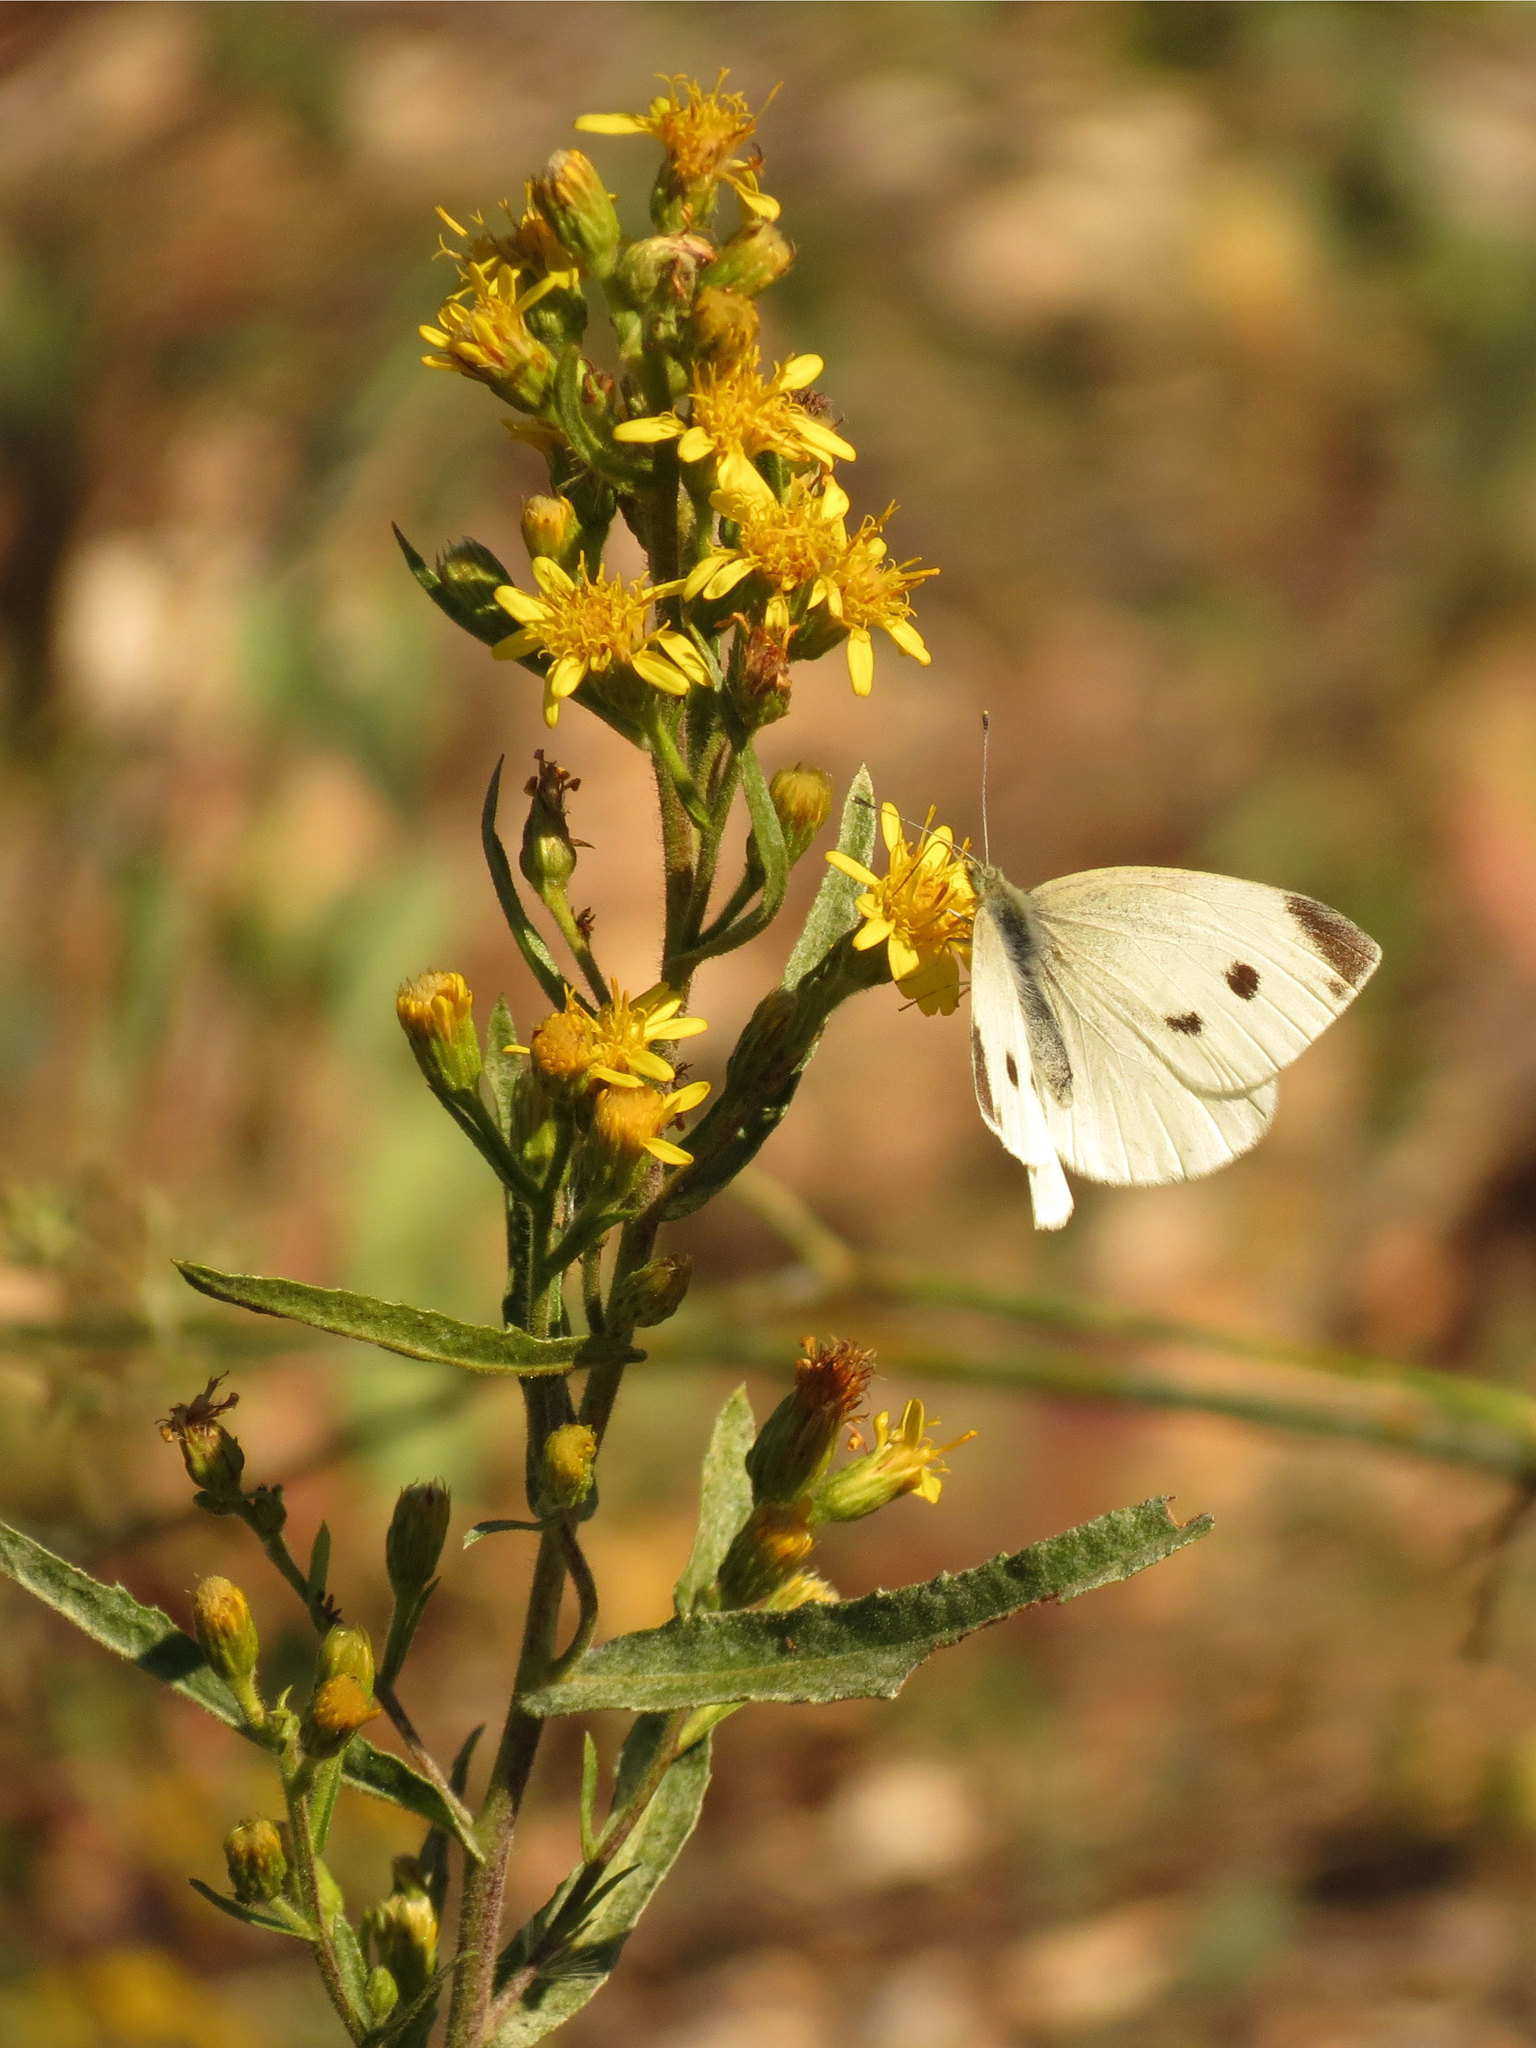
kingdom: Animalia
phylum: Arthropoda
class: Insecta
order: Lepidoptera
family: Pieridae
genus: Pieris
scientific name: Pieris rapae
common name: Small white
